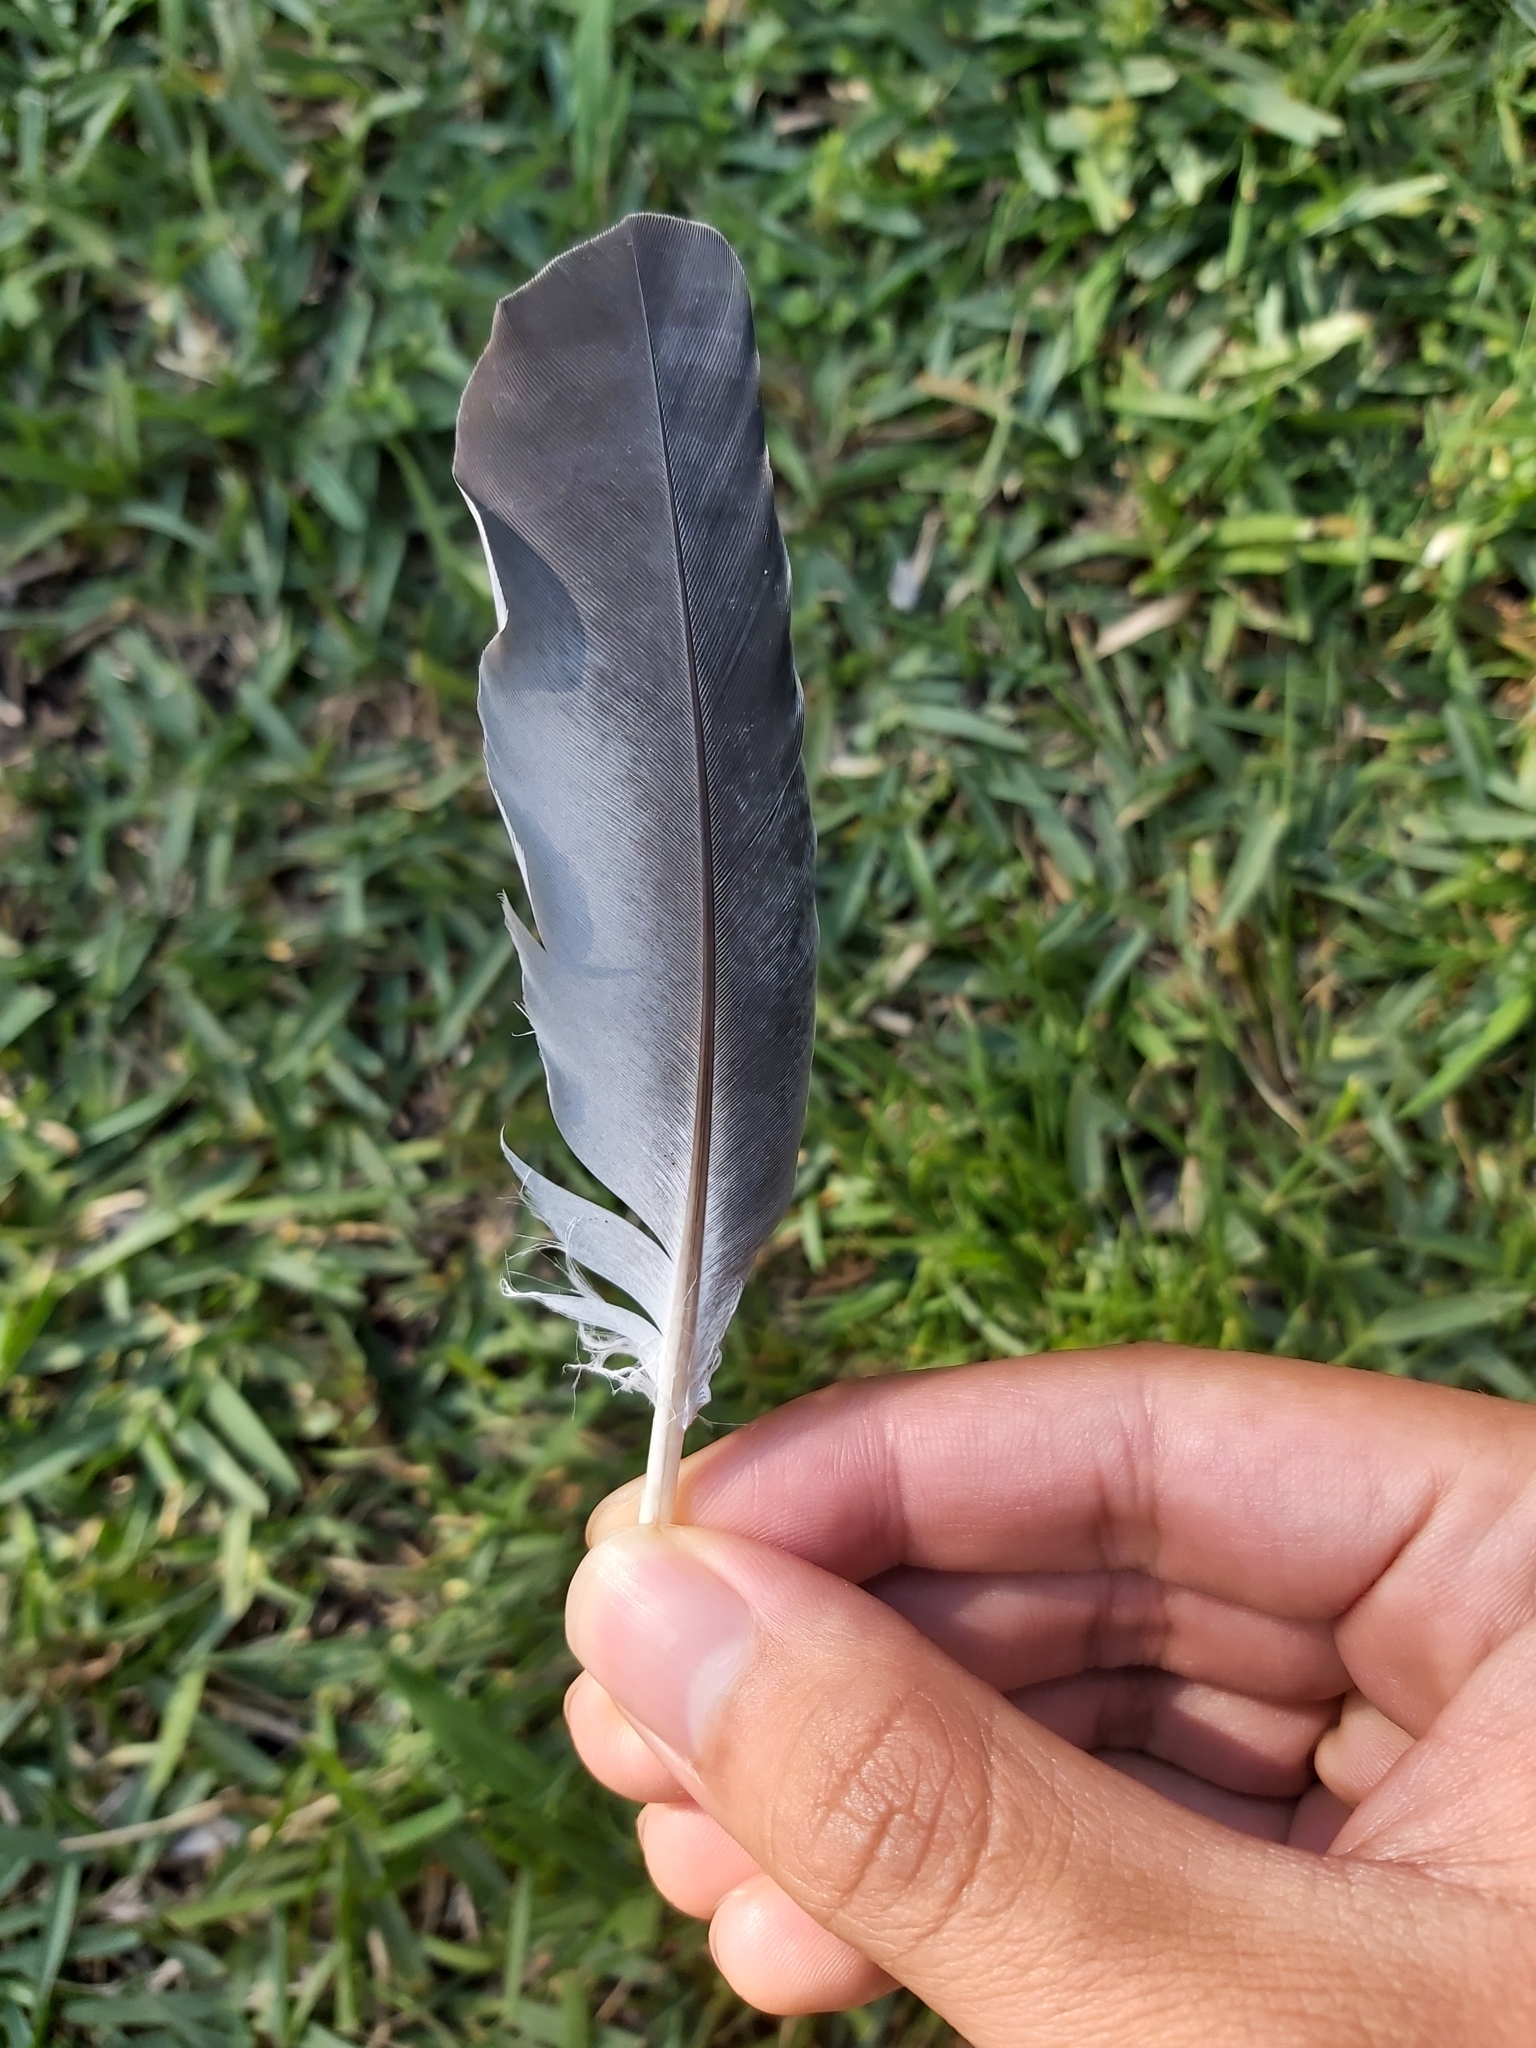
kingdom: Animalia
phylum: Chordata
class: Aves
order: Columbiformes
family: Columbidae
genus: Columba
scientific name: Columba livia
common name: Rock pigeon
